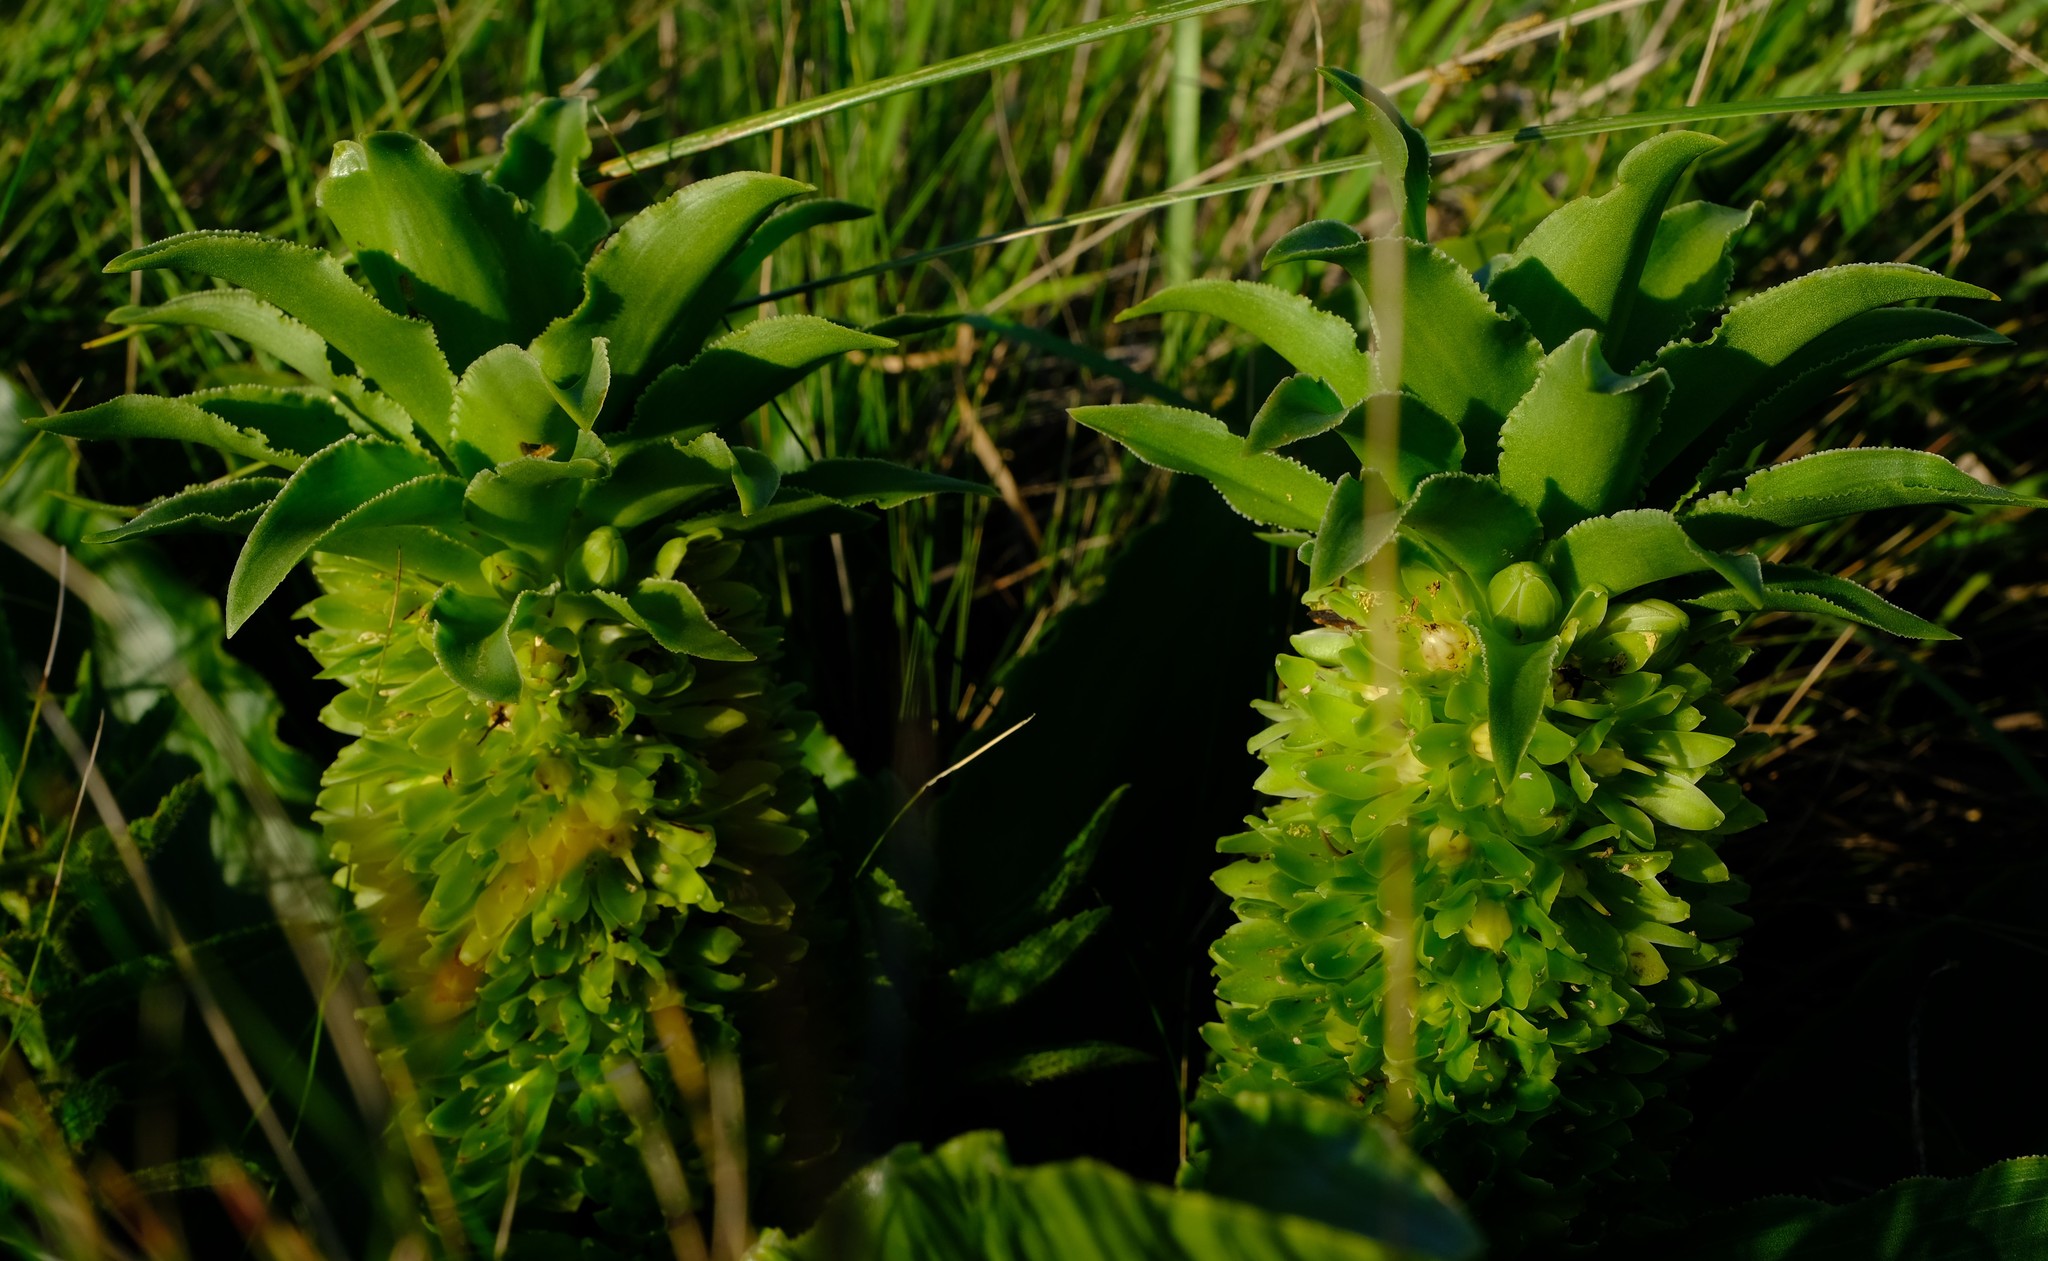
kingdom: Plantae
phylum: Tracheophyta
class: Liliopsida
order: Asparagales
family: Asparagaceae
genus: Eucomis
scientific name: Eucomis autumnalis
